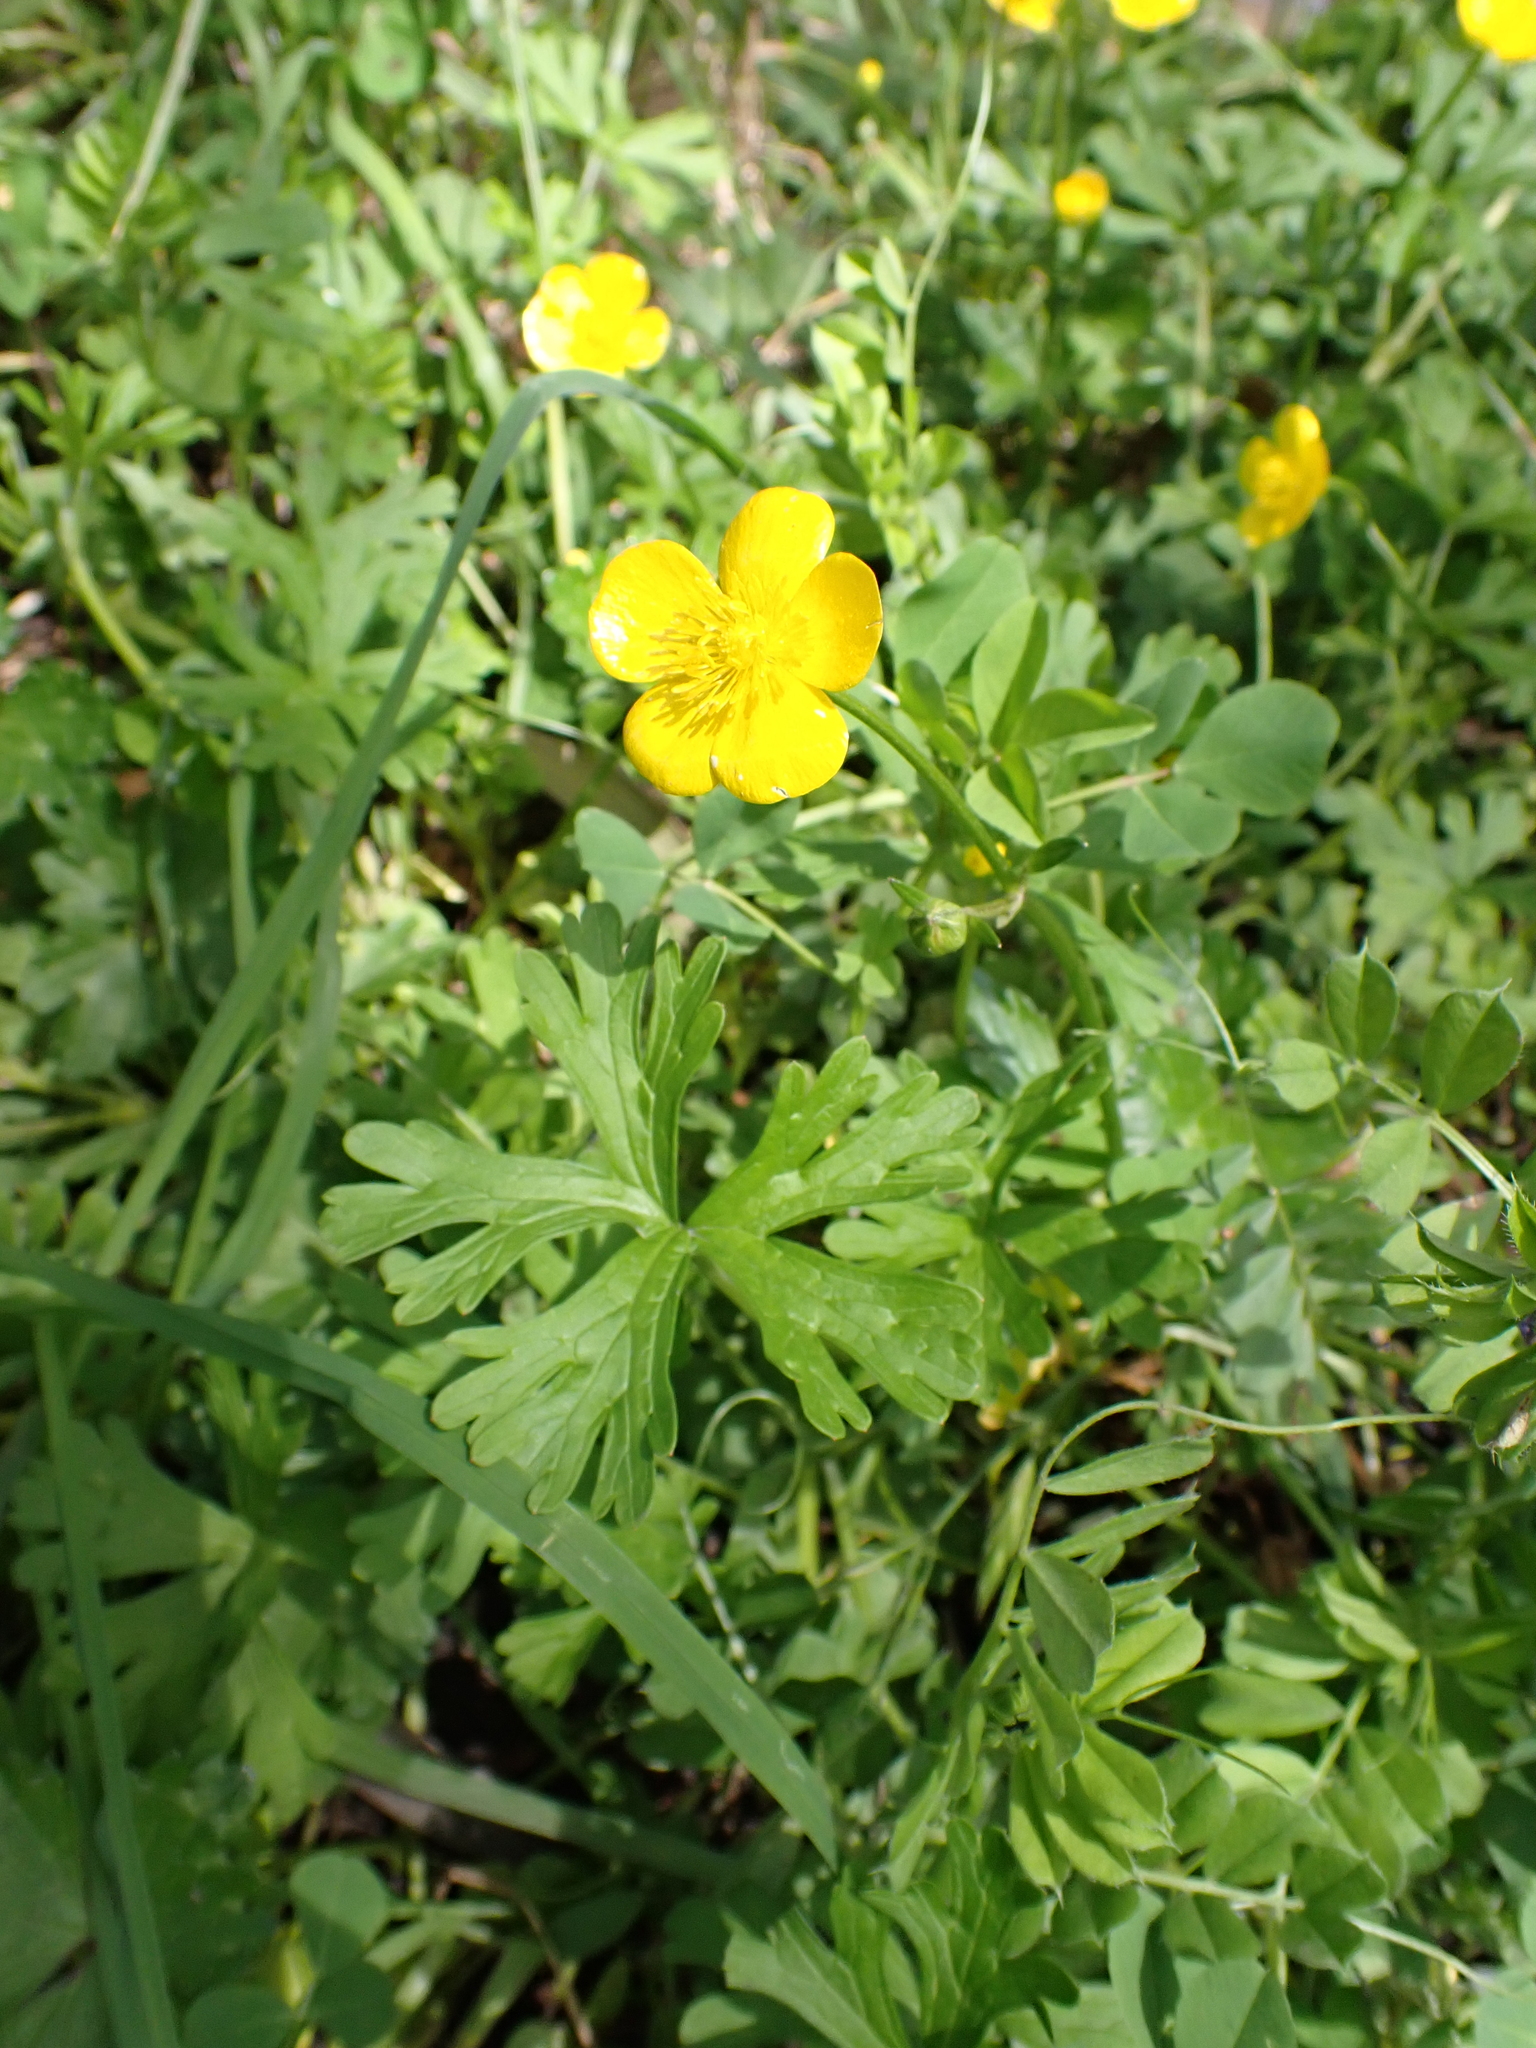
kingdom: Plantae
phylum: Tracheophyta
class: Magnoliopsida
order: Ranunculales
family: Ranunculaceae
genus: Ranunculus
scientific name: Ranunculus repens
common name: Creeping buttercup
